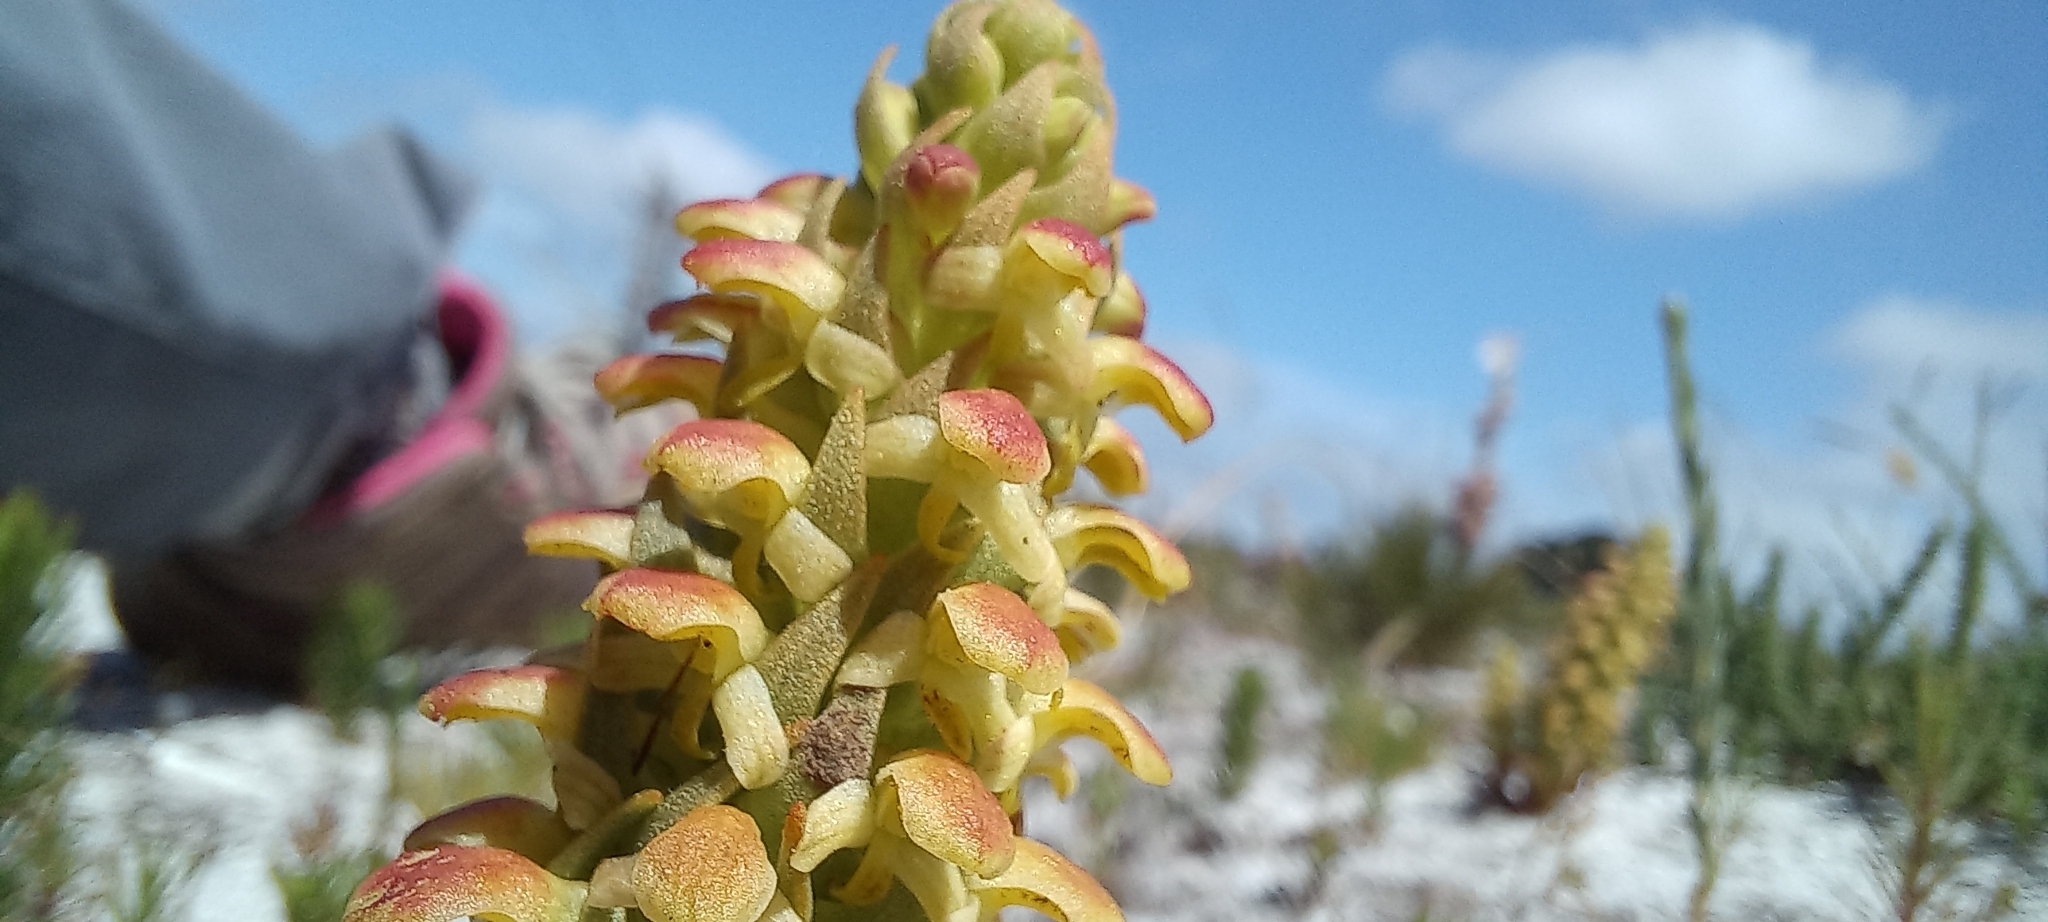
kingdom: Plantae
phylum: Tracheophyta
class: Liliopsida
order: Asparagales
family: Orchidaceae
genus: Disa
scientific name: Disa pygmaea
